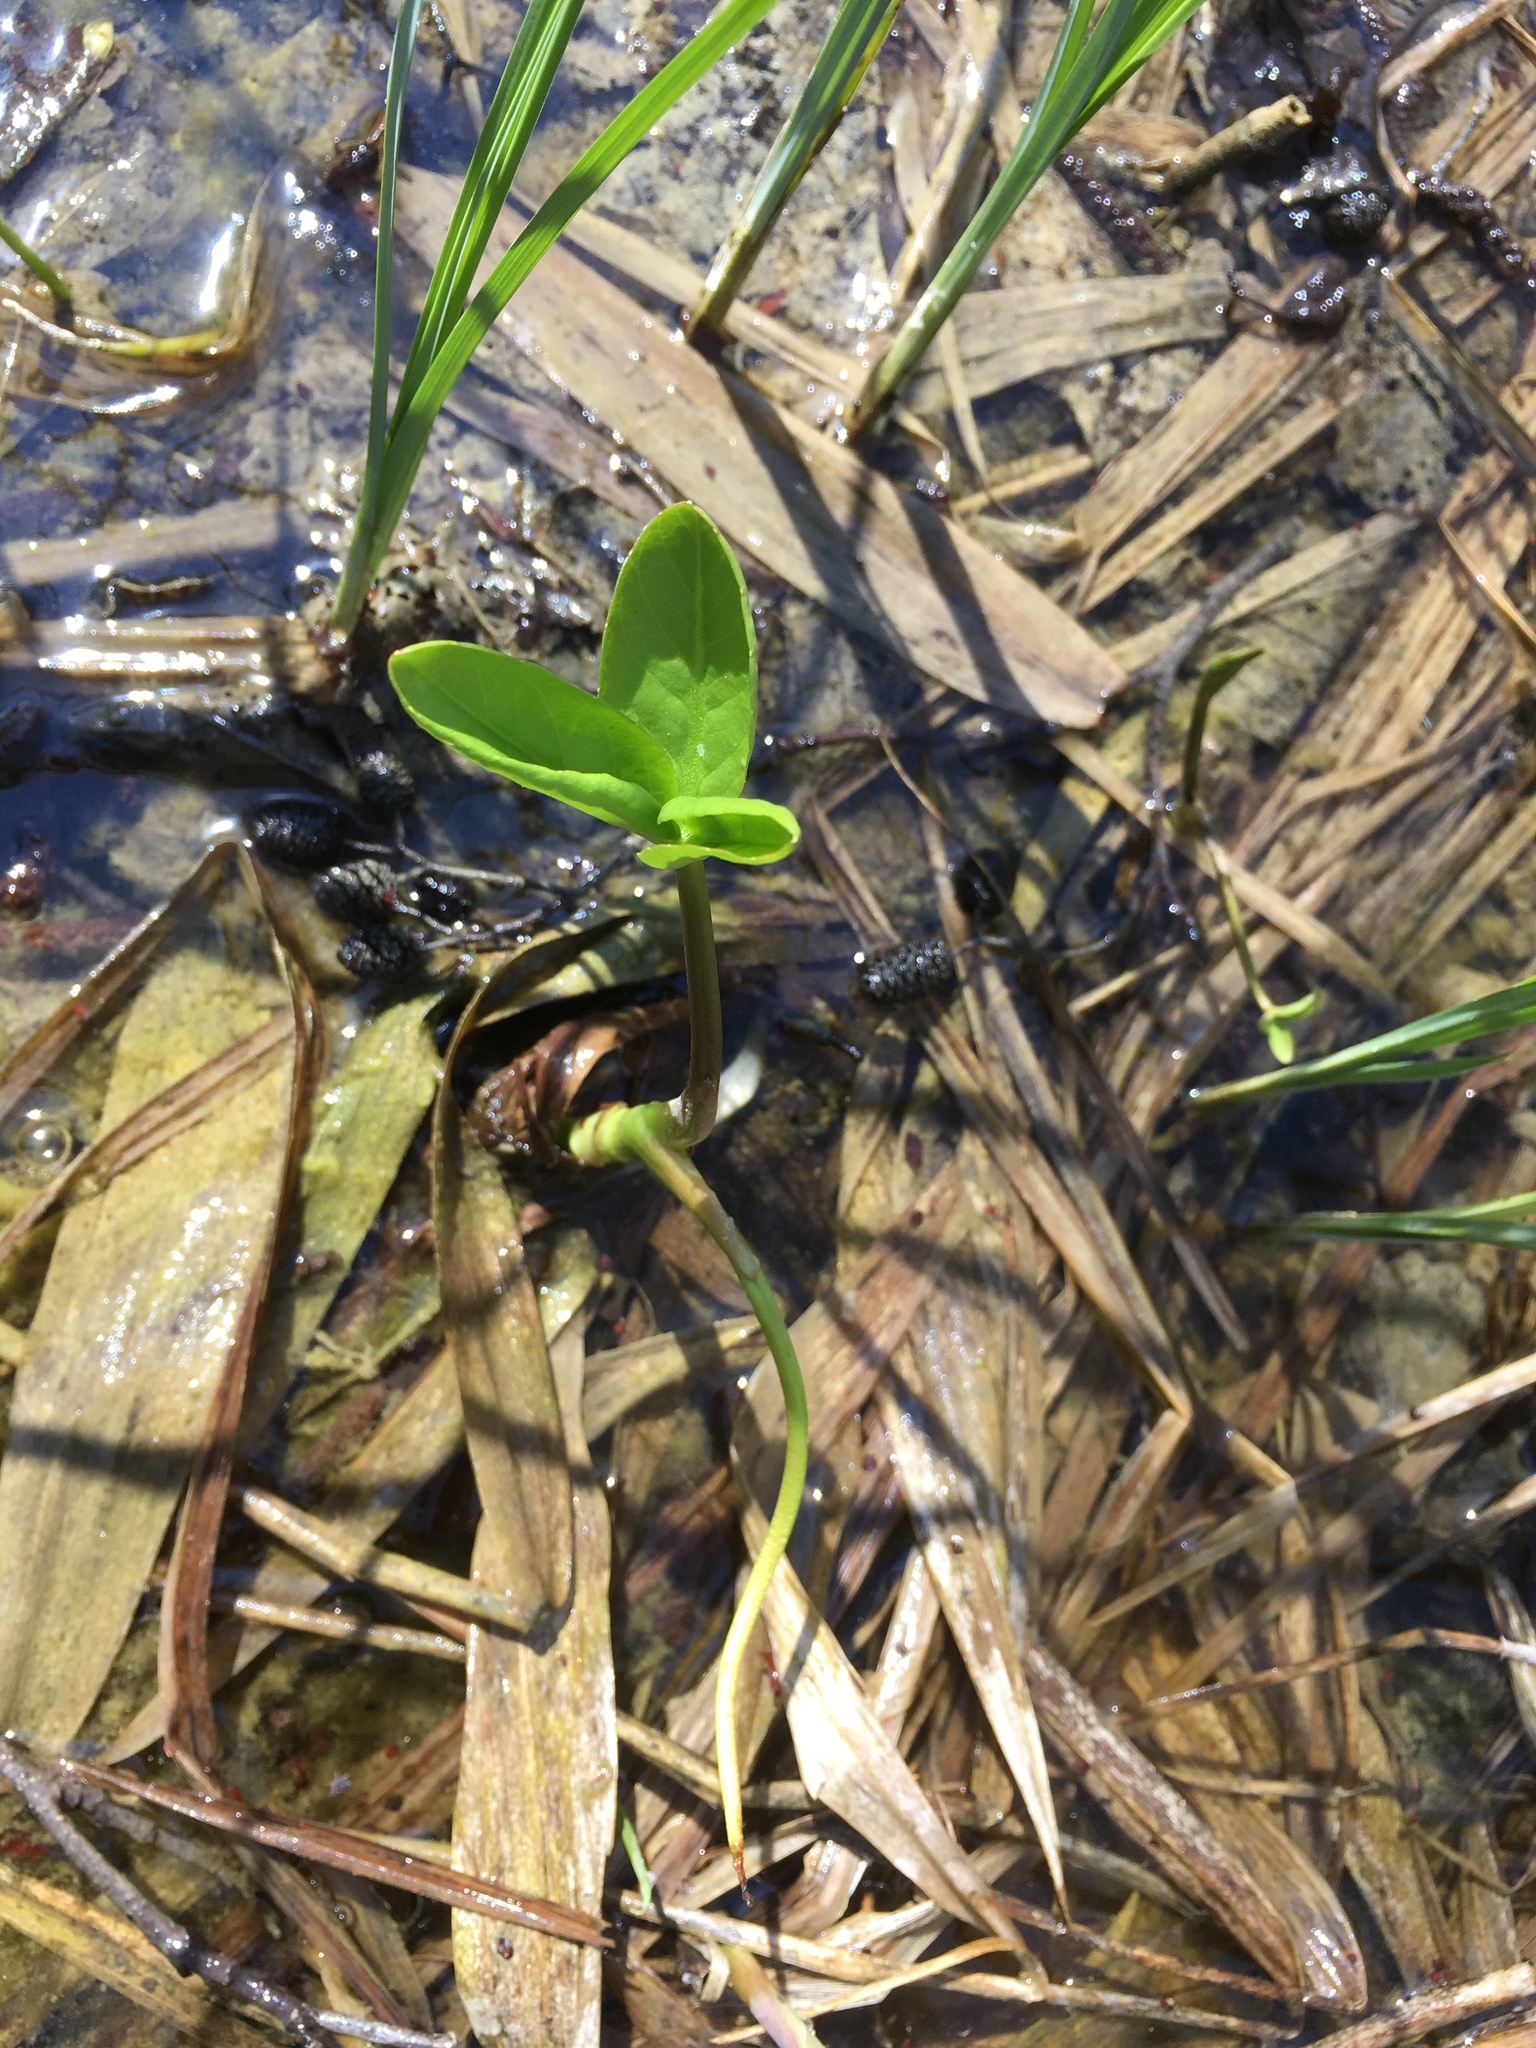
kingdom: Plantae
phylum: Tracheophyta
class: Magnoliopsida
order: Asterales
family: Menyanthaceae
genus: Menyanthes
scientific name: Menyanthes trifoliata
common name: Bogbean
